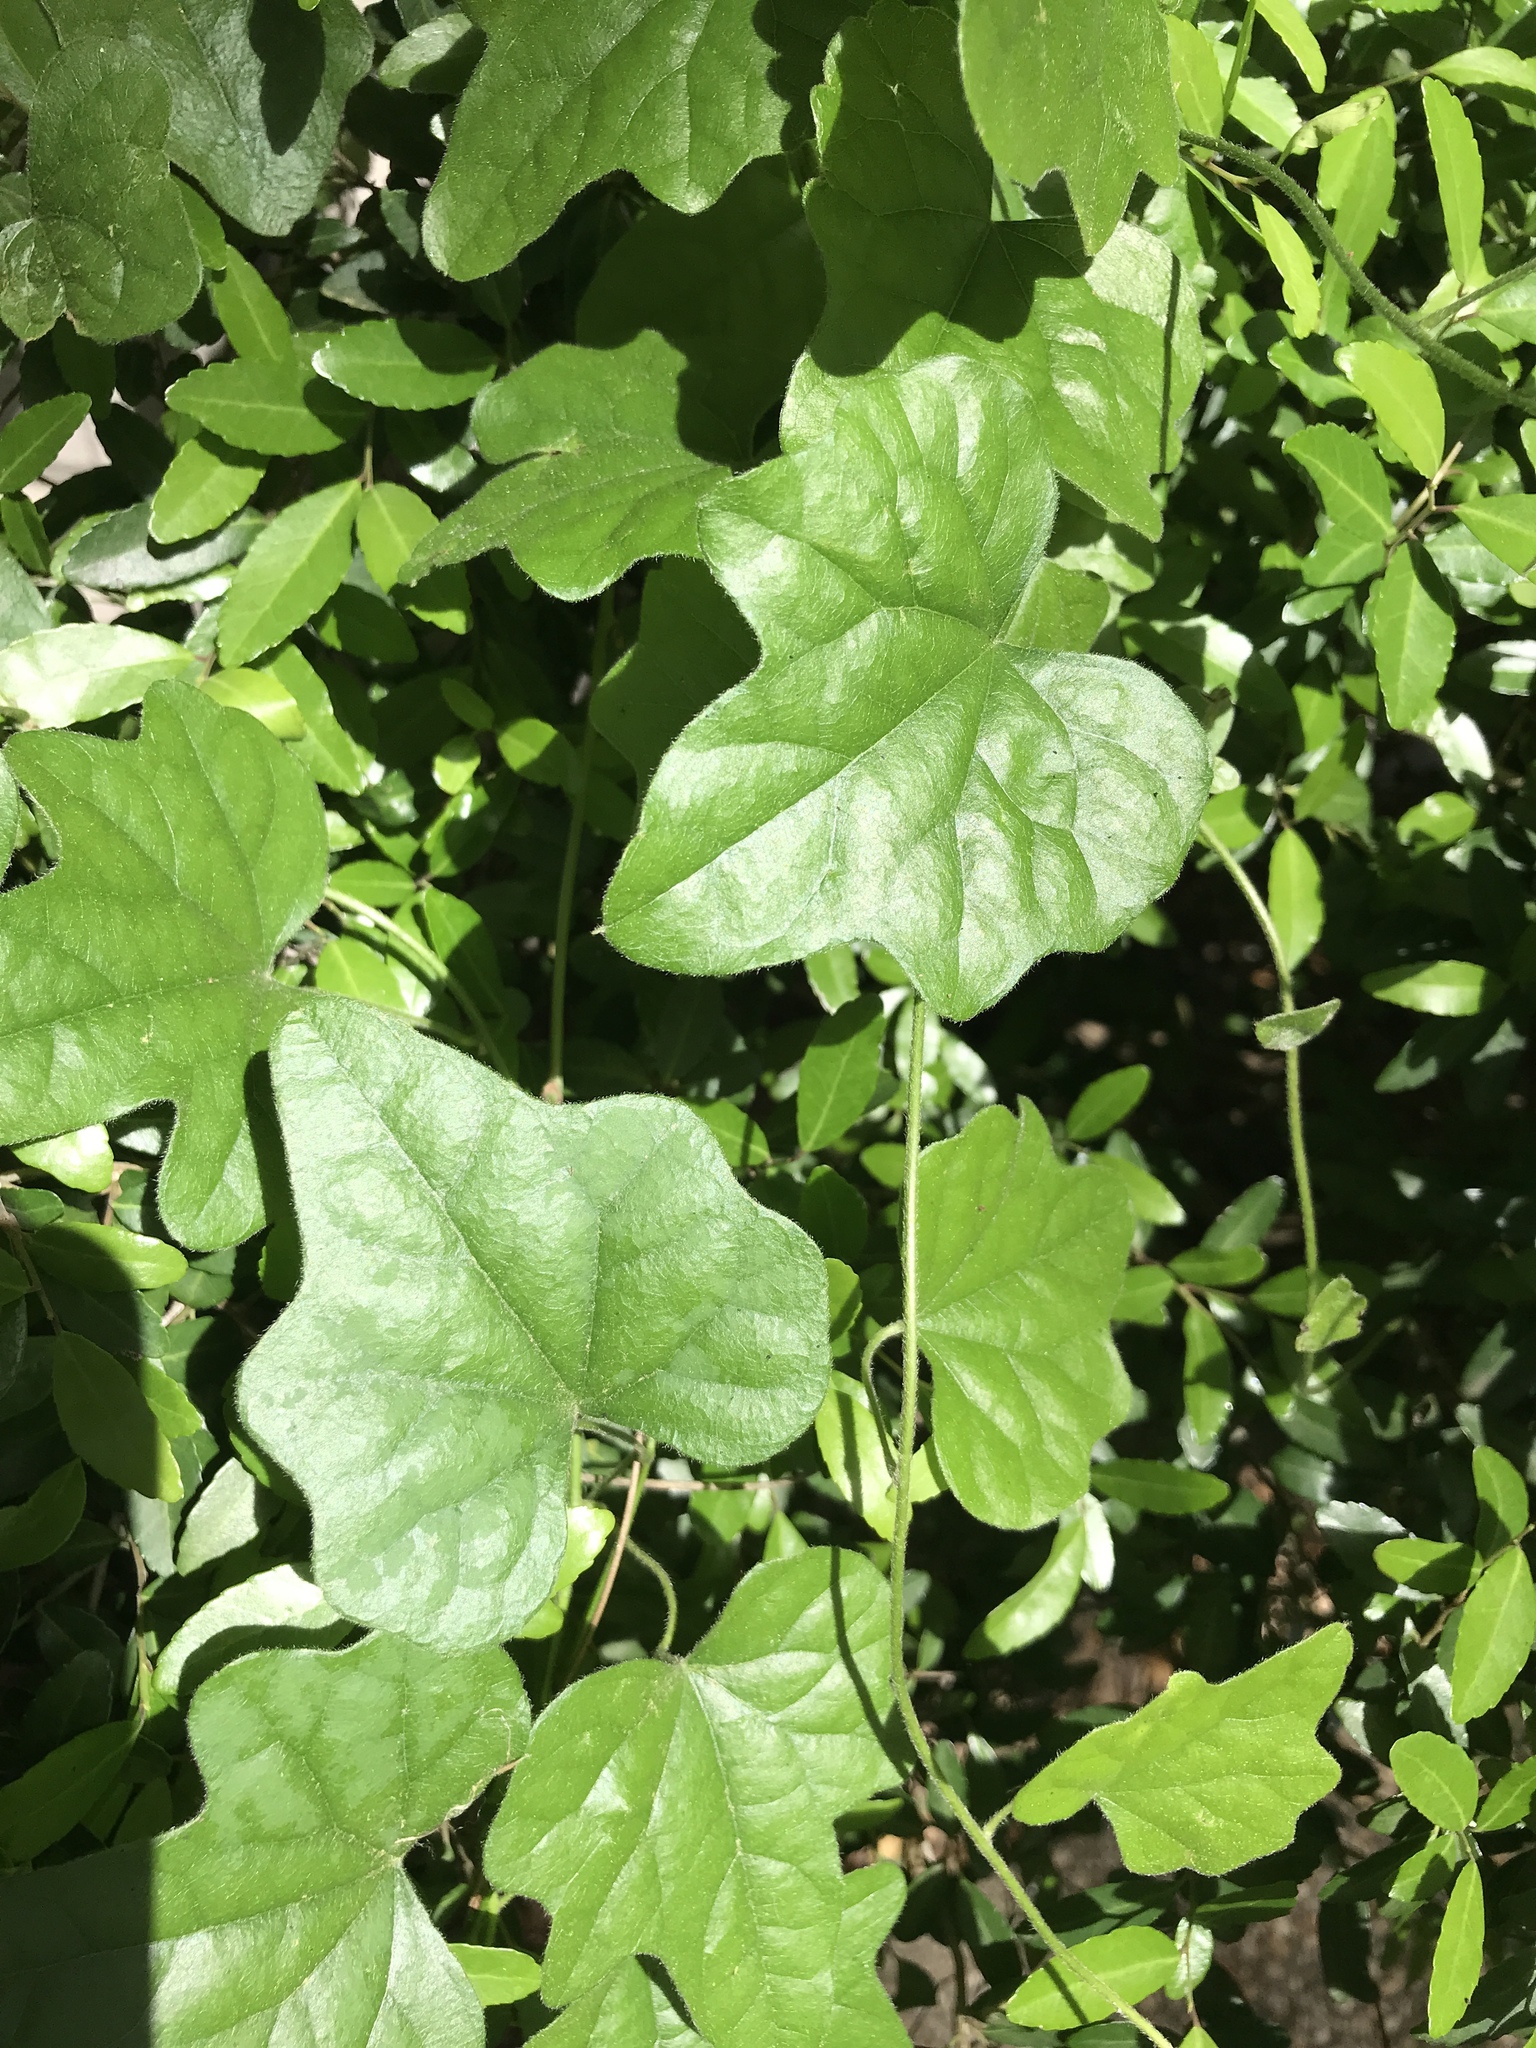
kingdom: Plantae
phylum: Tracheophyta
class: Magnoliopsida
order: Ranunculales
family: Menispermaceae
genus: Cocculus
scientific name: Cocculus carolinus
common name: Carolina moonseed
